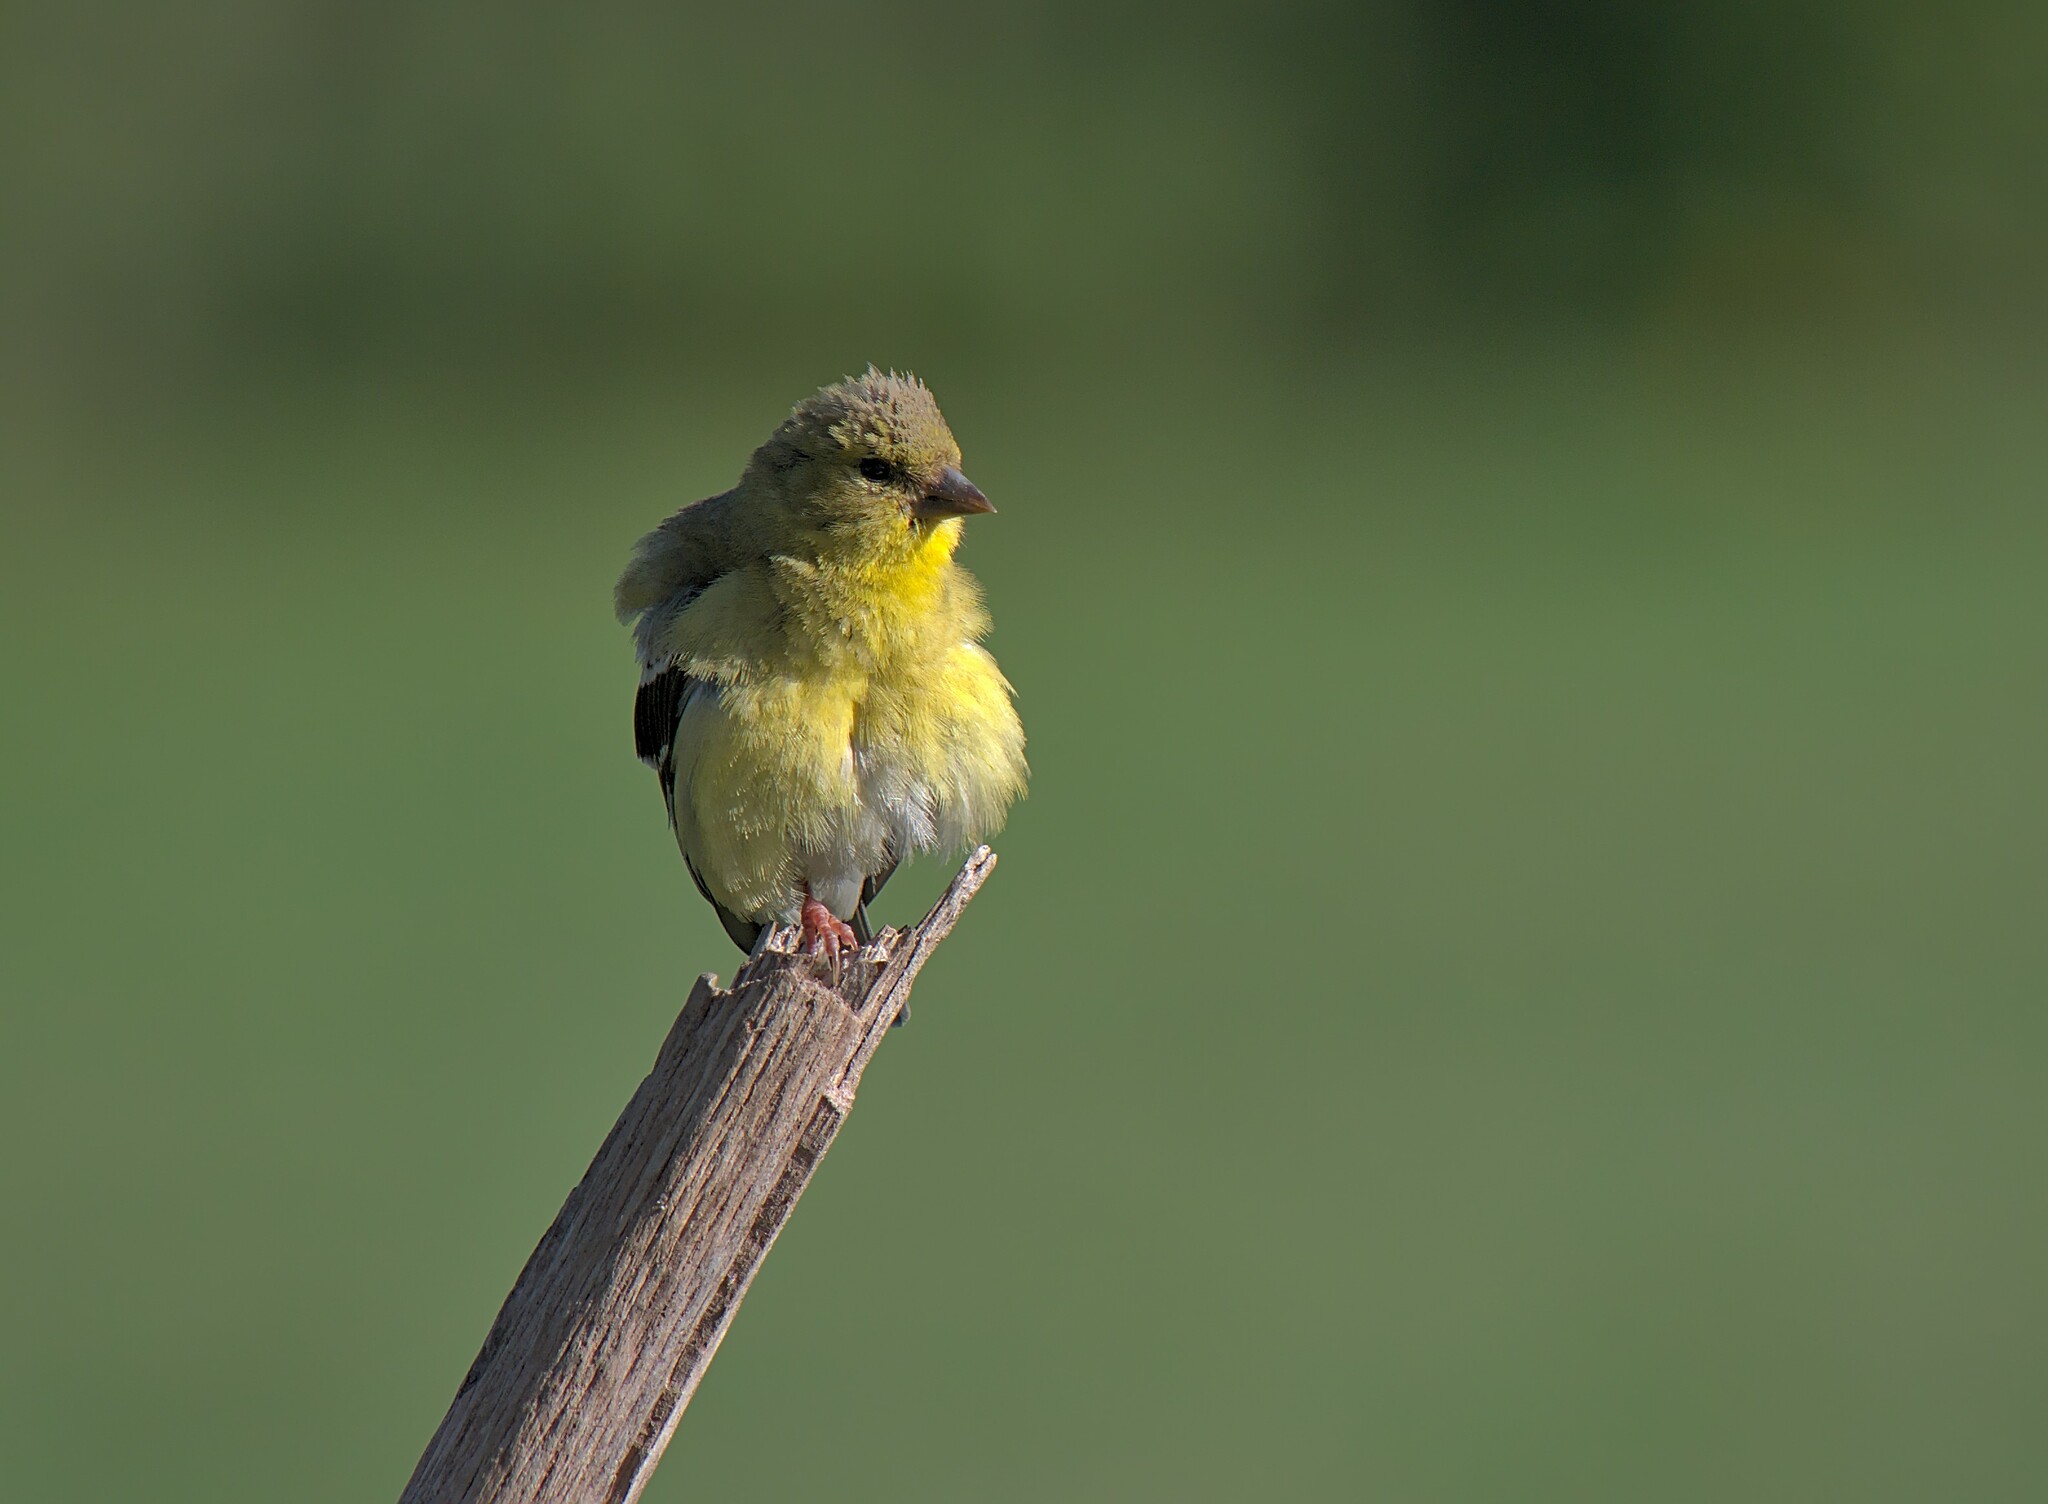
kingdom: Animalia
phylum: Chordata
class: Aves
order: Passeriformes
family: Fringillidae
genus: Spinus
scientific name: Spinus tristis
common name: American goldfinch
